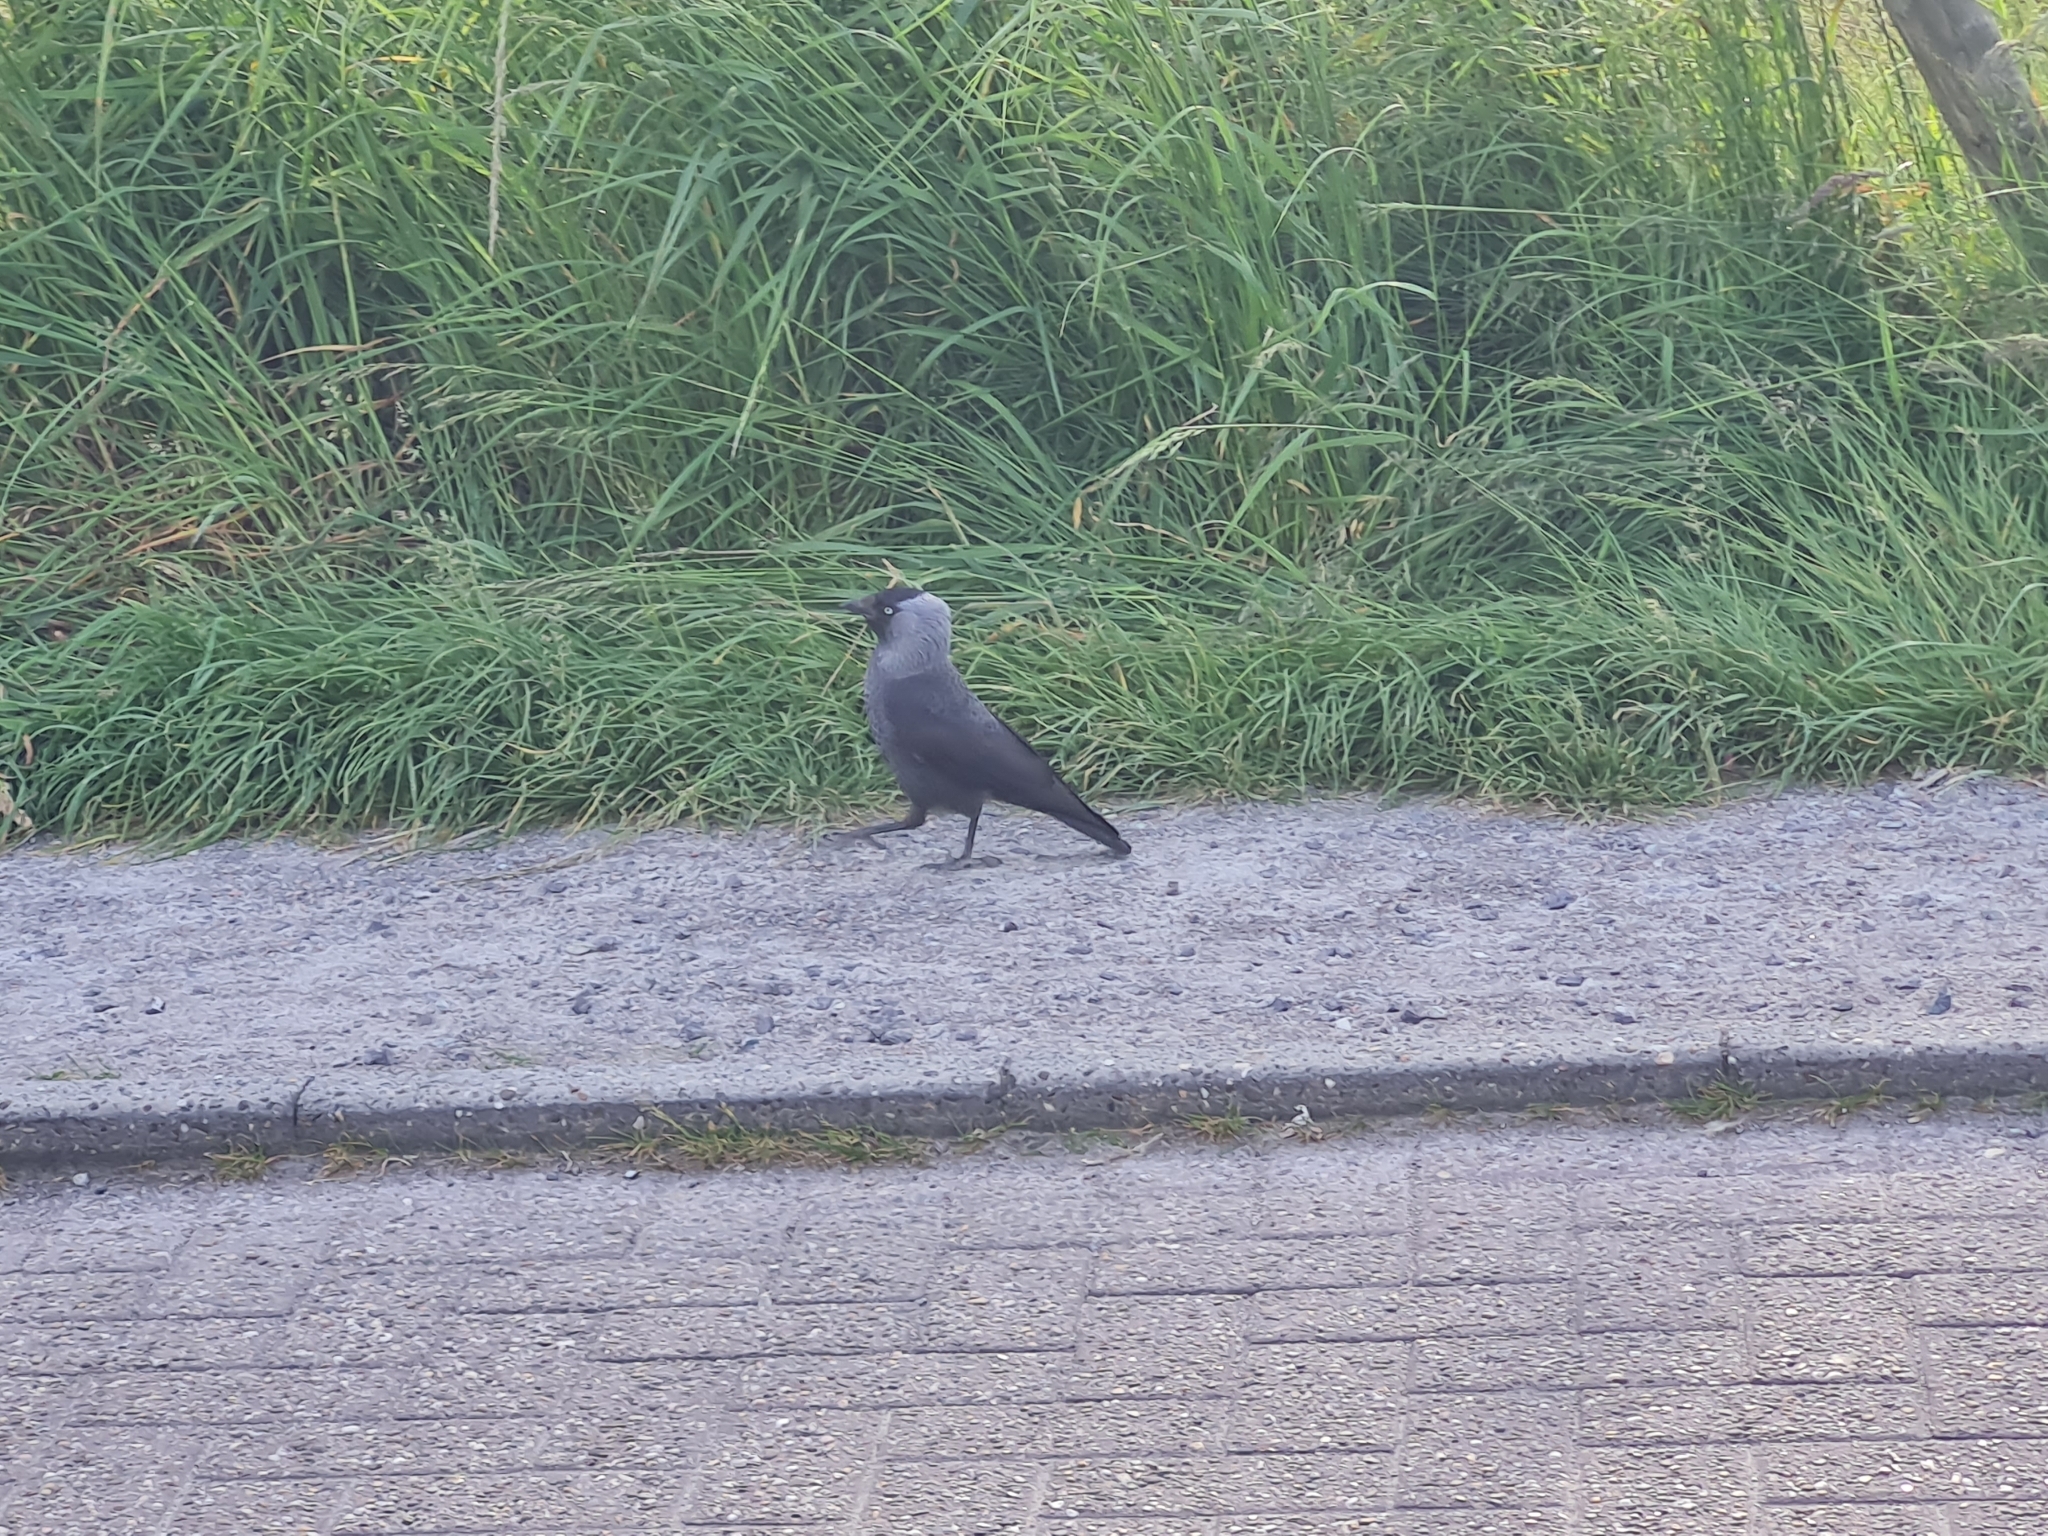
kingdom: Animalia
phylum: Chordata
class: Aves
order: Passeriformes
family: Corvidae
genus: Coloeus
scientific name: Coloeus monedula
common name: Western jackdaw
